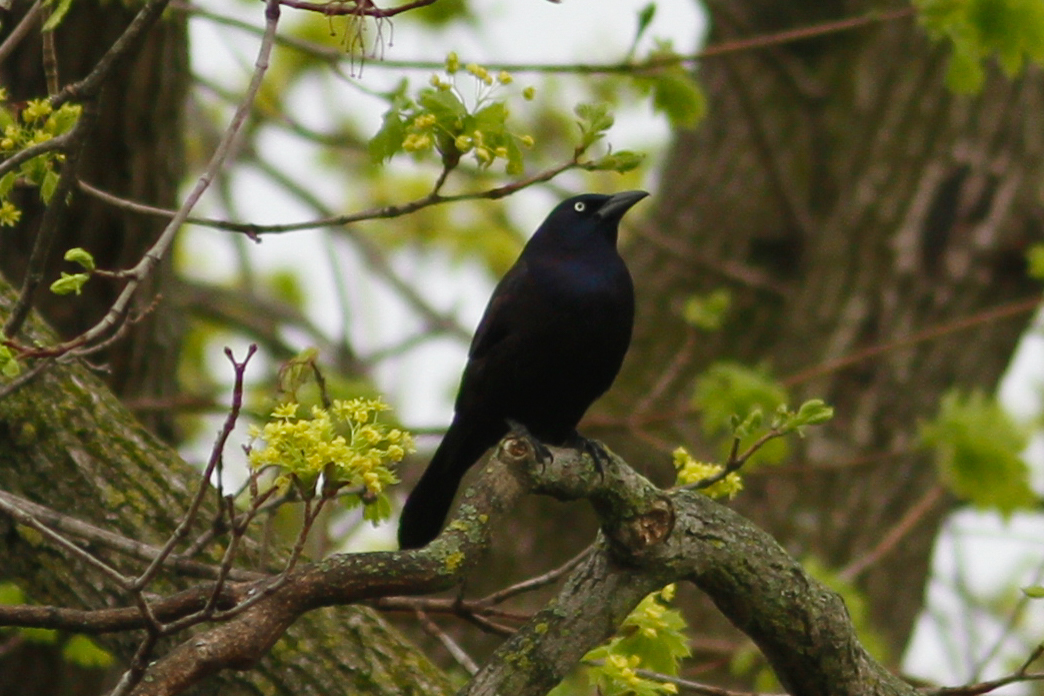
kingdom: Animalia
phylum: Chordata
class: Aves
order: Passeriformes
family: Icteridae
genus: Quiscalus
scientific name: Quiscalus quiscula
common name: Common grackle
